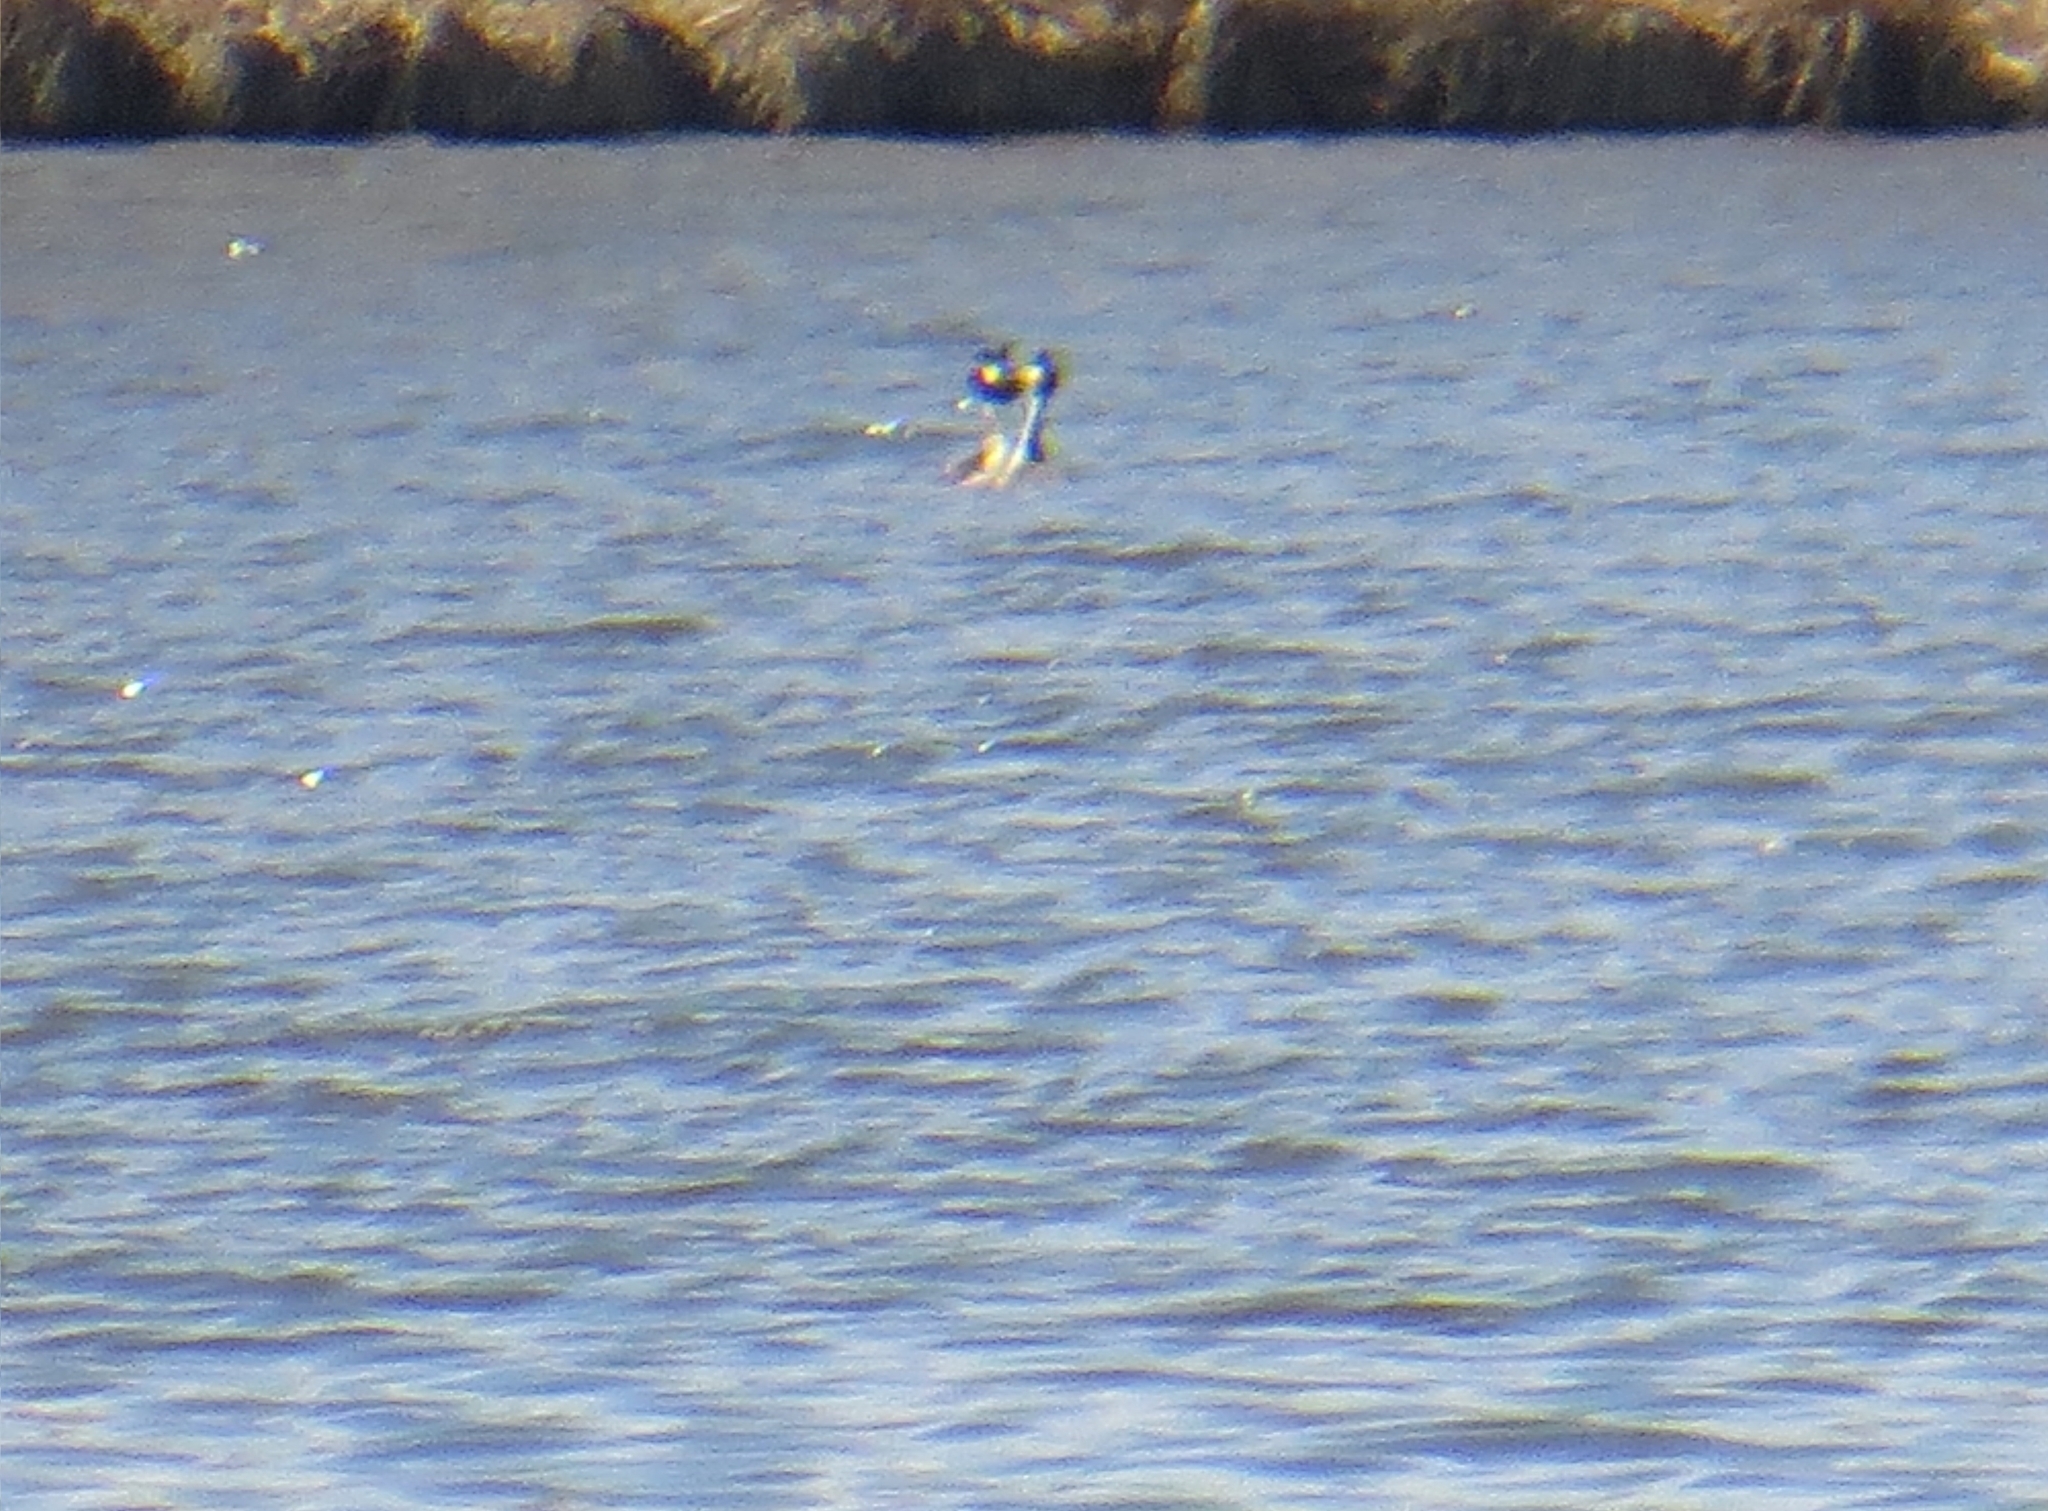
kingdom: Animalia
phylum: Chordata
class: Aves
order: Podicipediformes
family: Podicipedidae
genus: Podiceps
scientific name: Podiceps cristatus
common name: Great crested grebe
